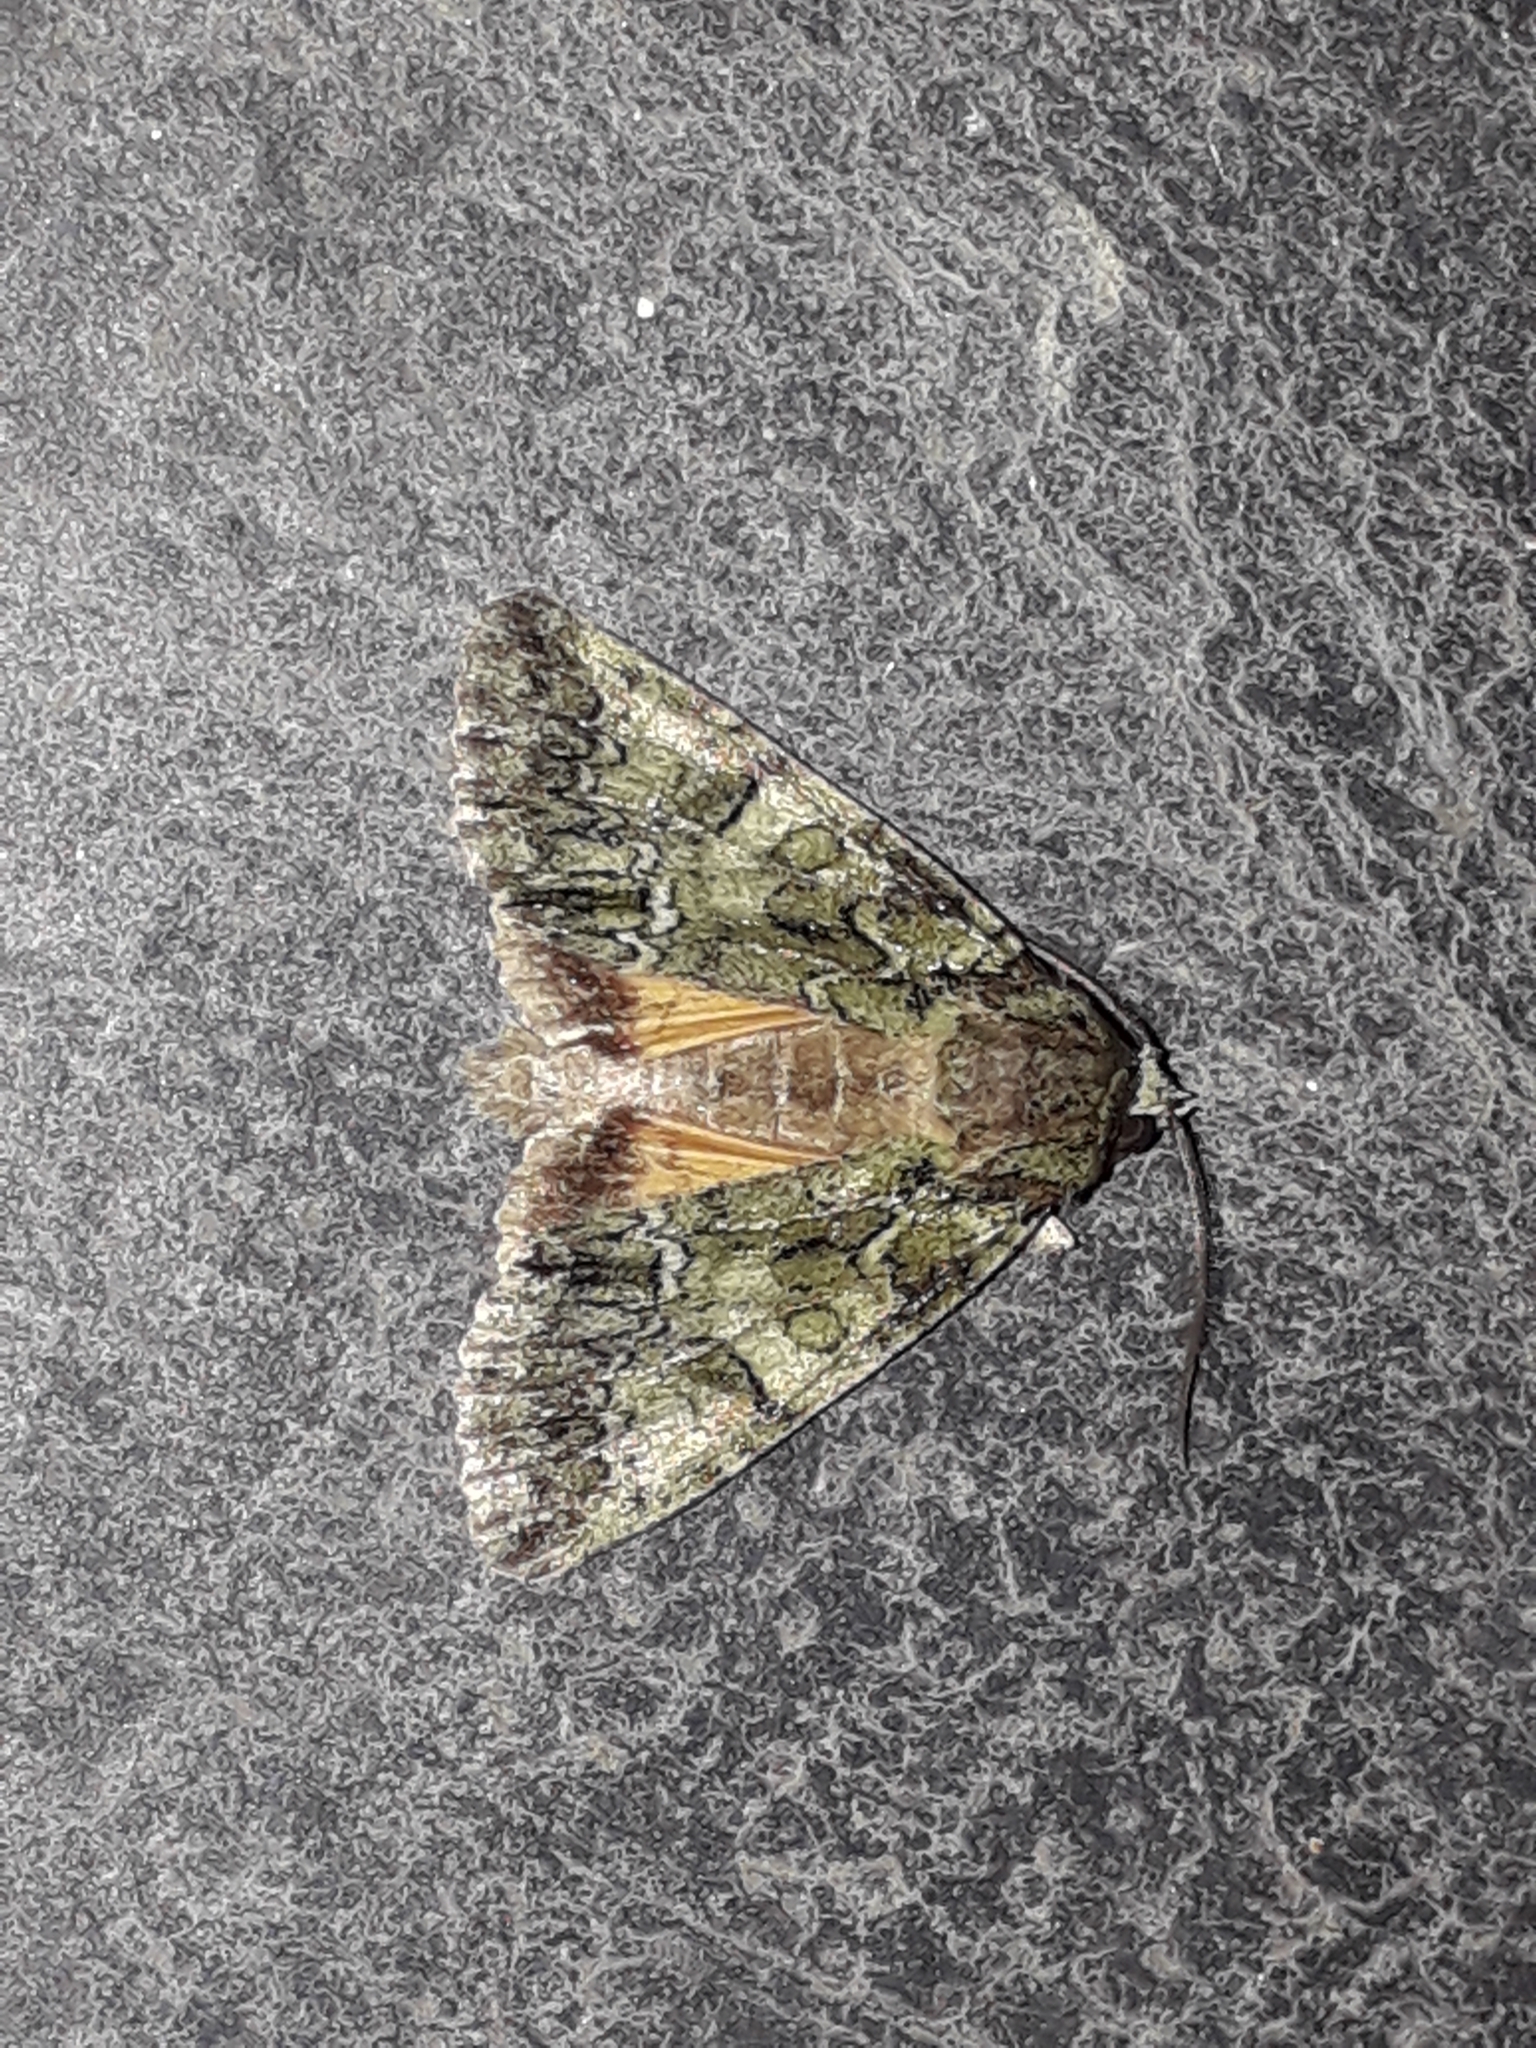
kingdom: Animalia
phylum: Arthropoda
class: Insecta
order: Lepidoptera
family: Noctuidae
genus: Polyphaenis
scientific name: Polyphaenis sericata
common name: Guernsey underwing
